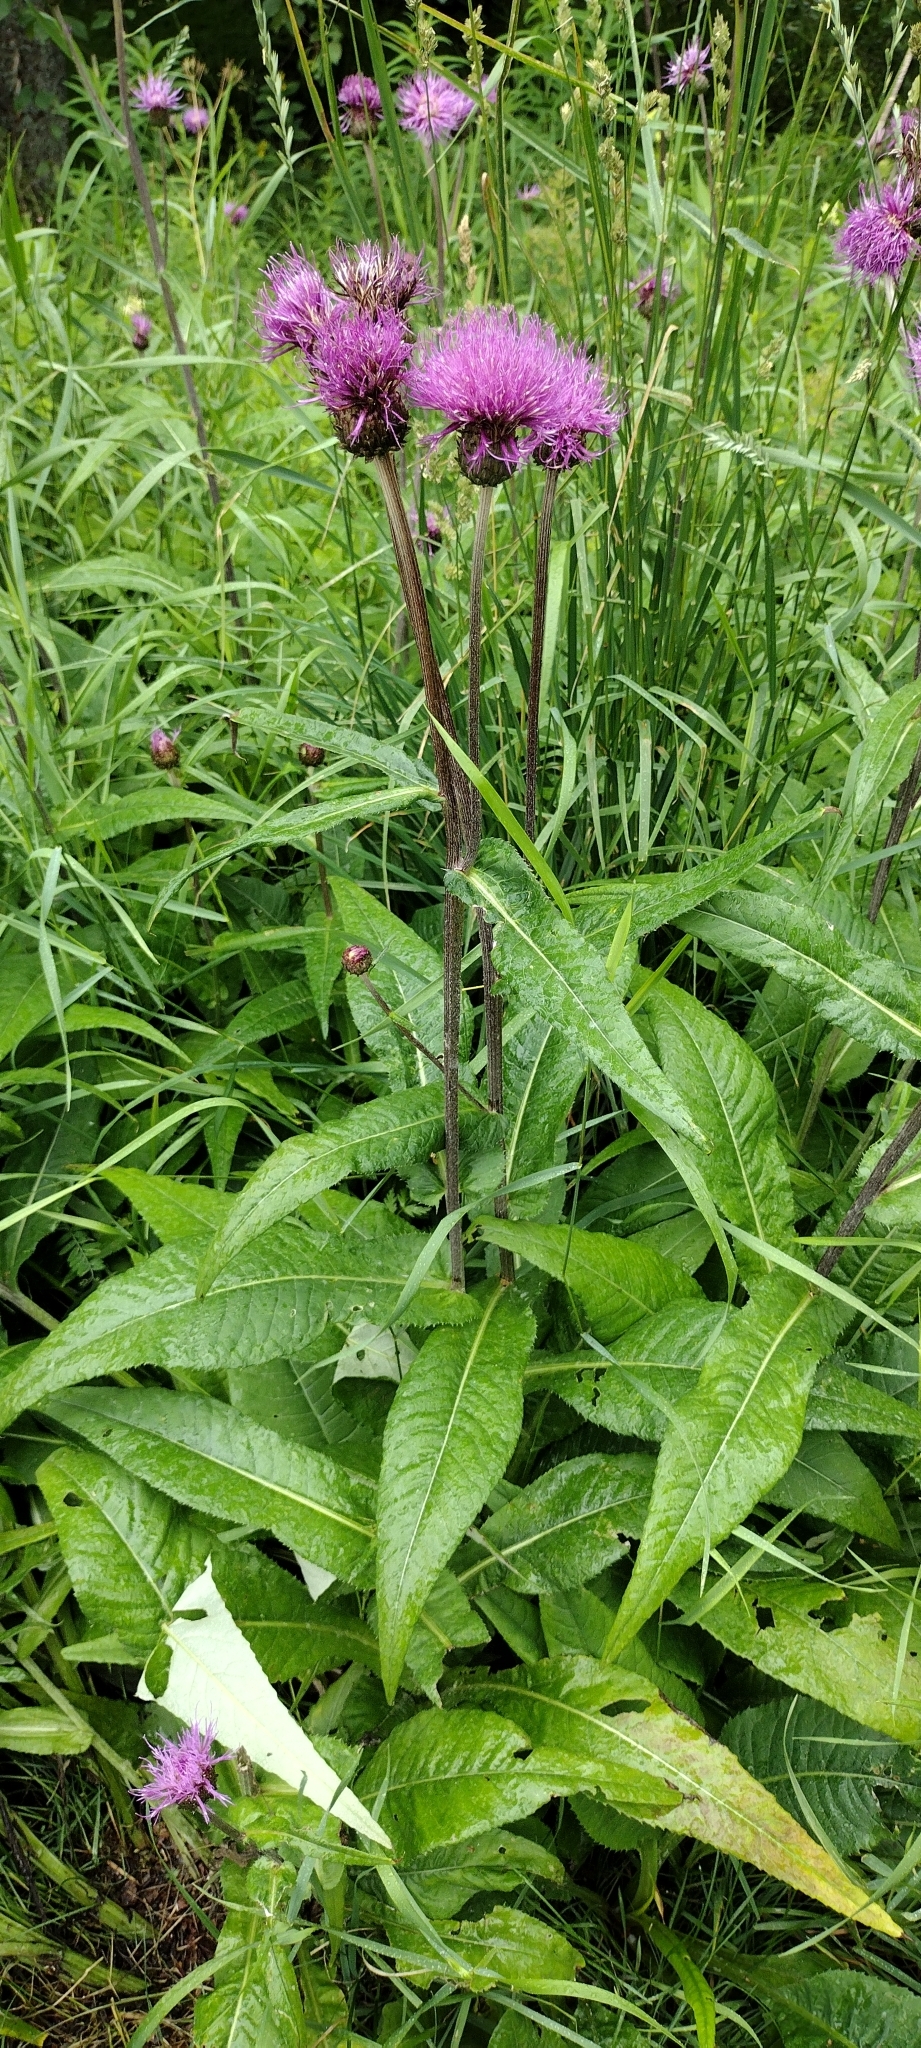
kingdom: Plantae
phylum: Tracheophyta
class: Magnoliopsida
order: Asterales
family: Asteraceae
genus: Cirsium
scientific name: Cirsium heterophyllum
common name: Melancholy thistle
